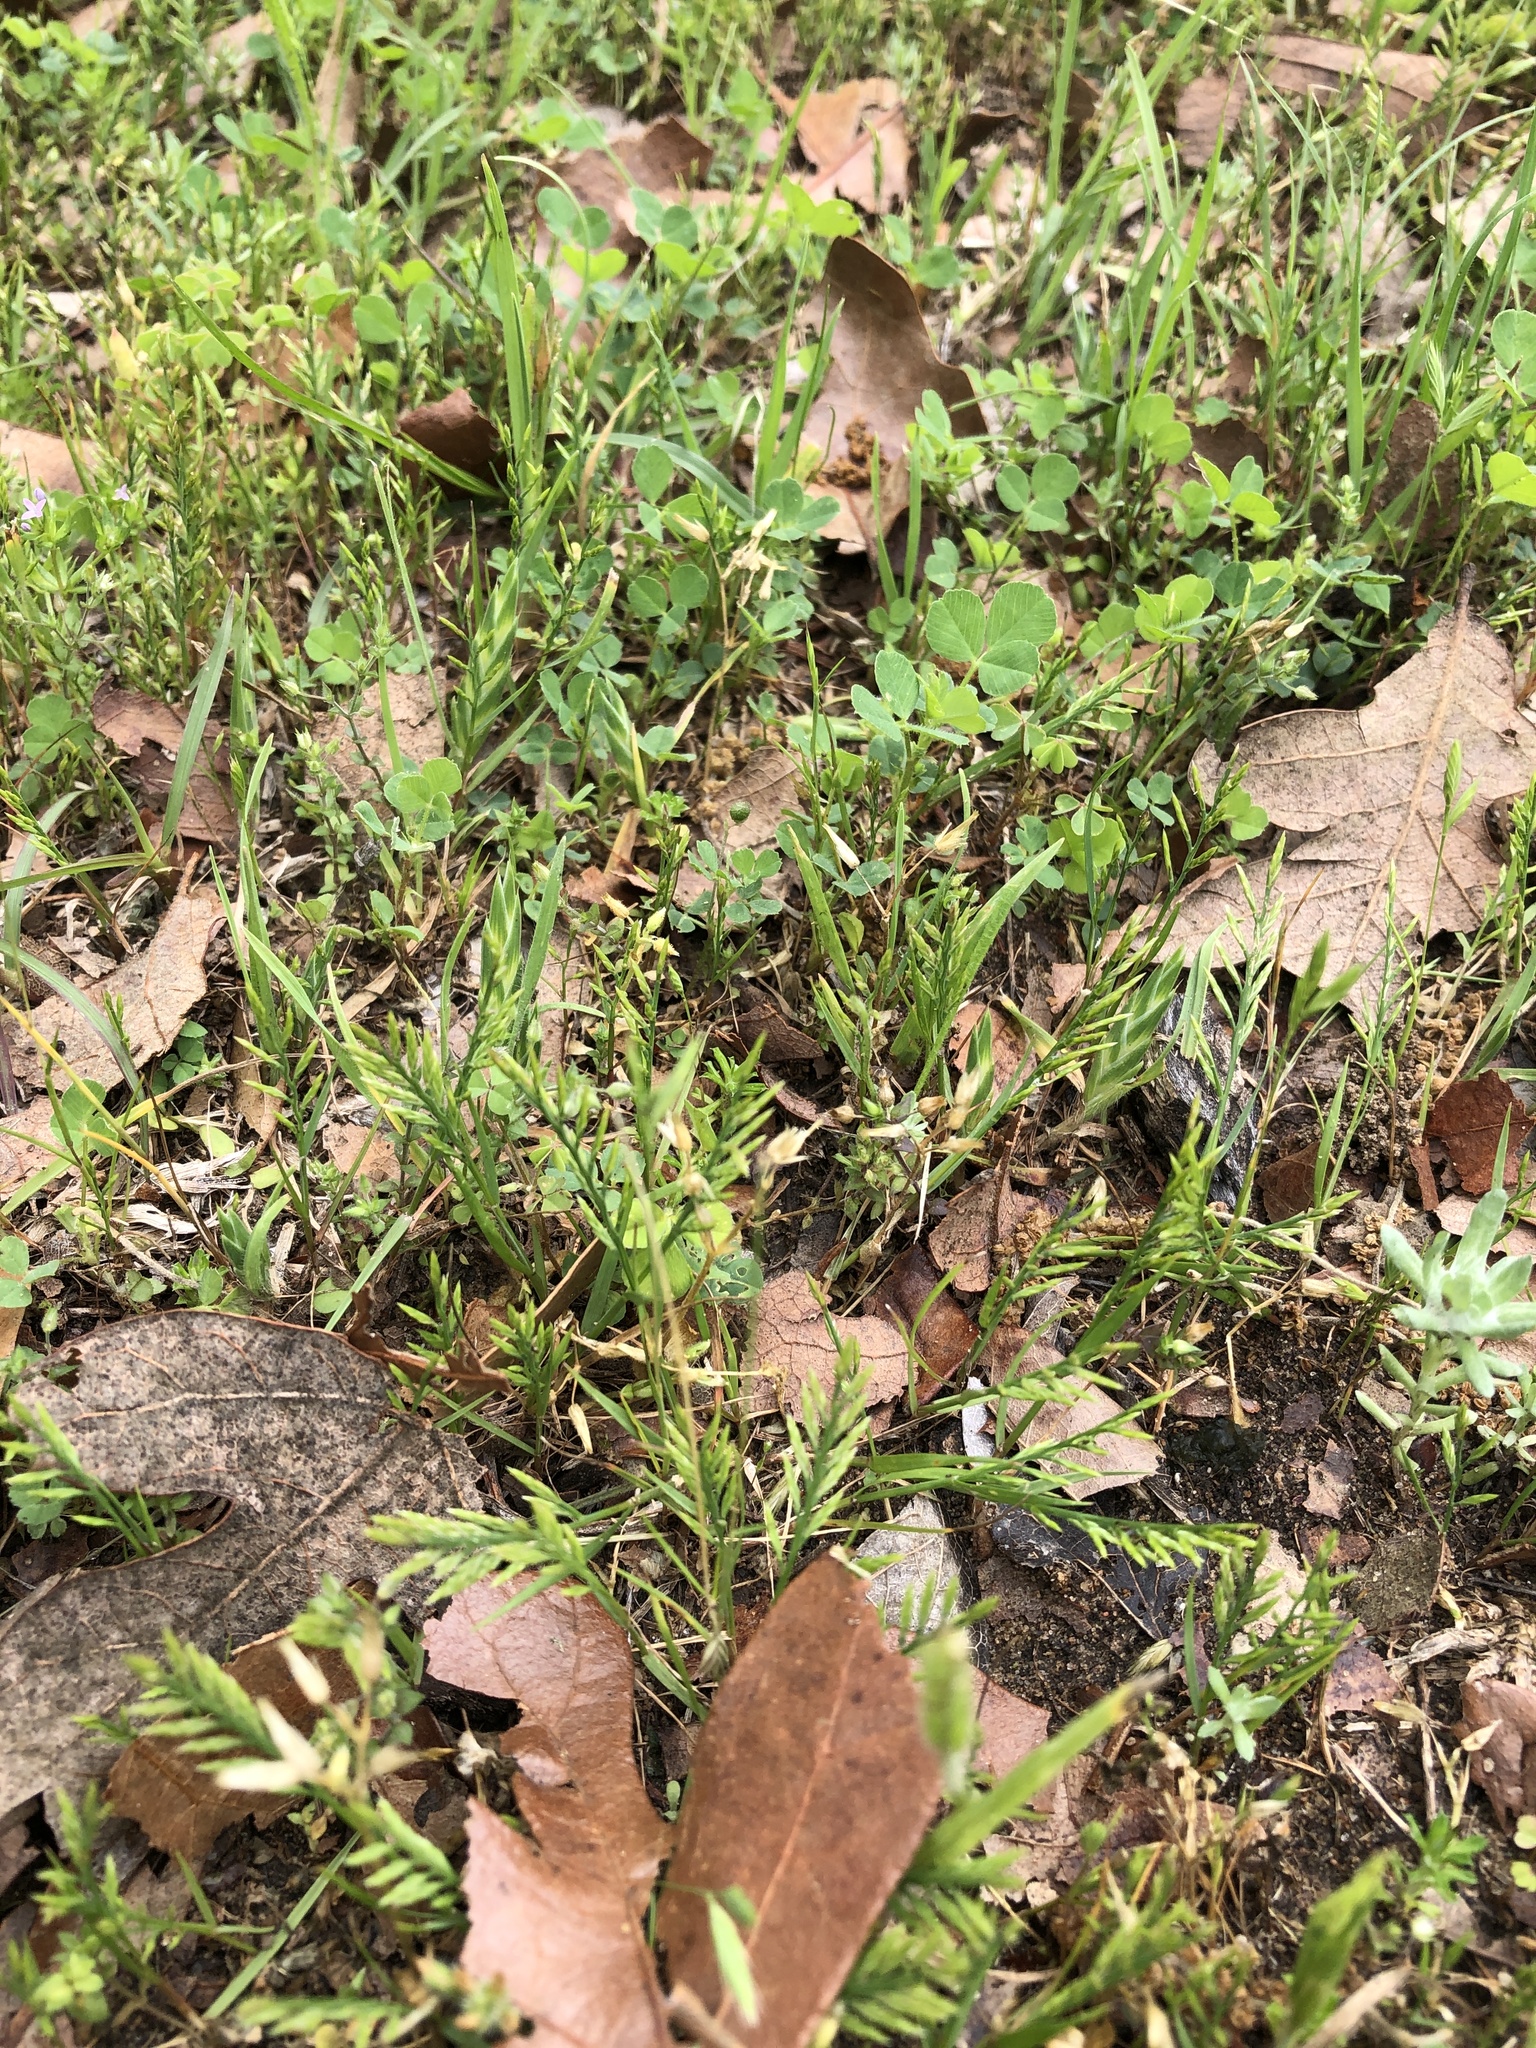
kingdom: Plantae
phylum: Tracheophyta
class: Liliopsida
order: Poales
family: Poaceae
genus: Catapodium
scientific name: Catapodium rigidum
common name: Fern-grass
